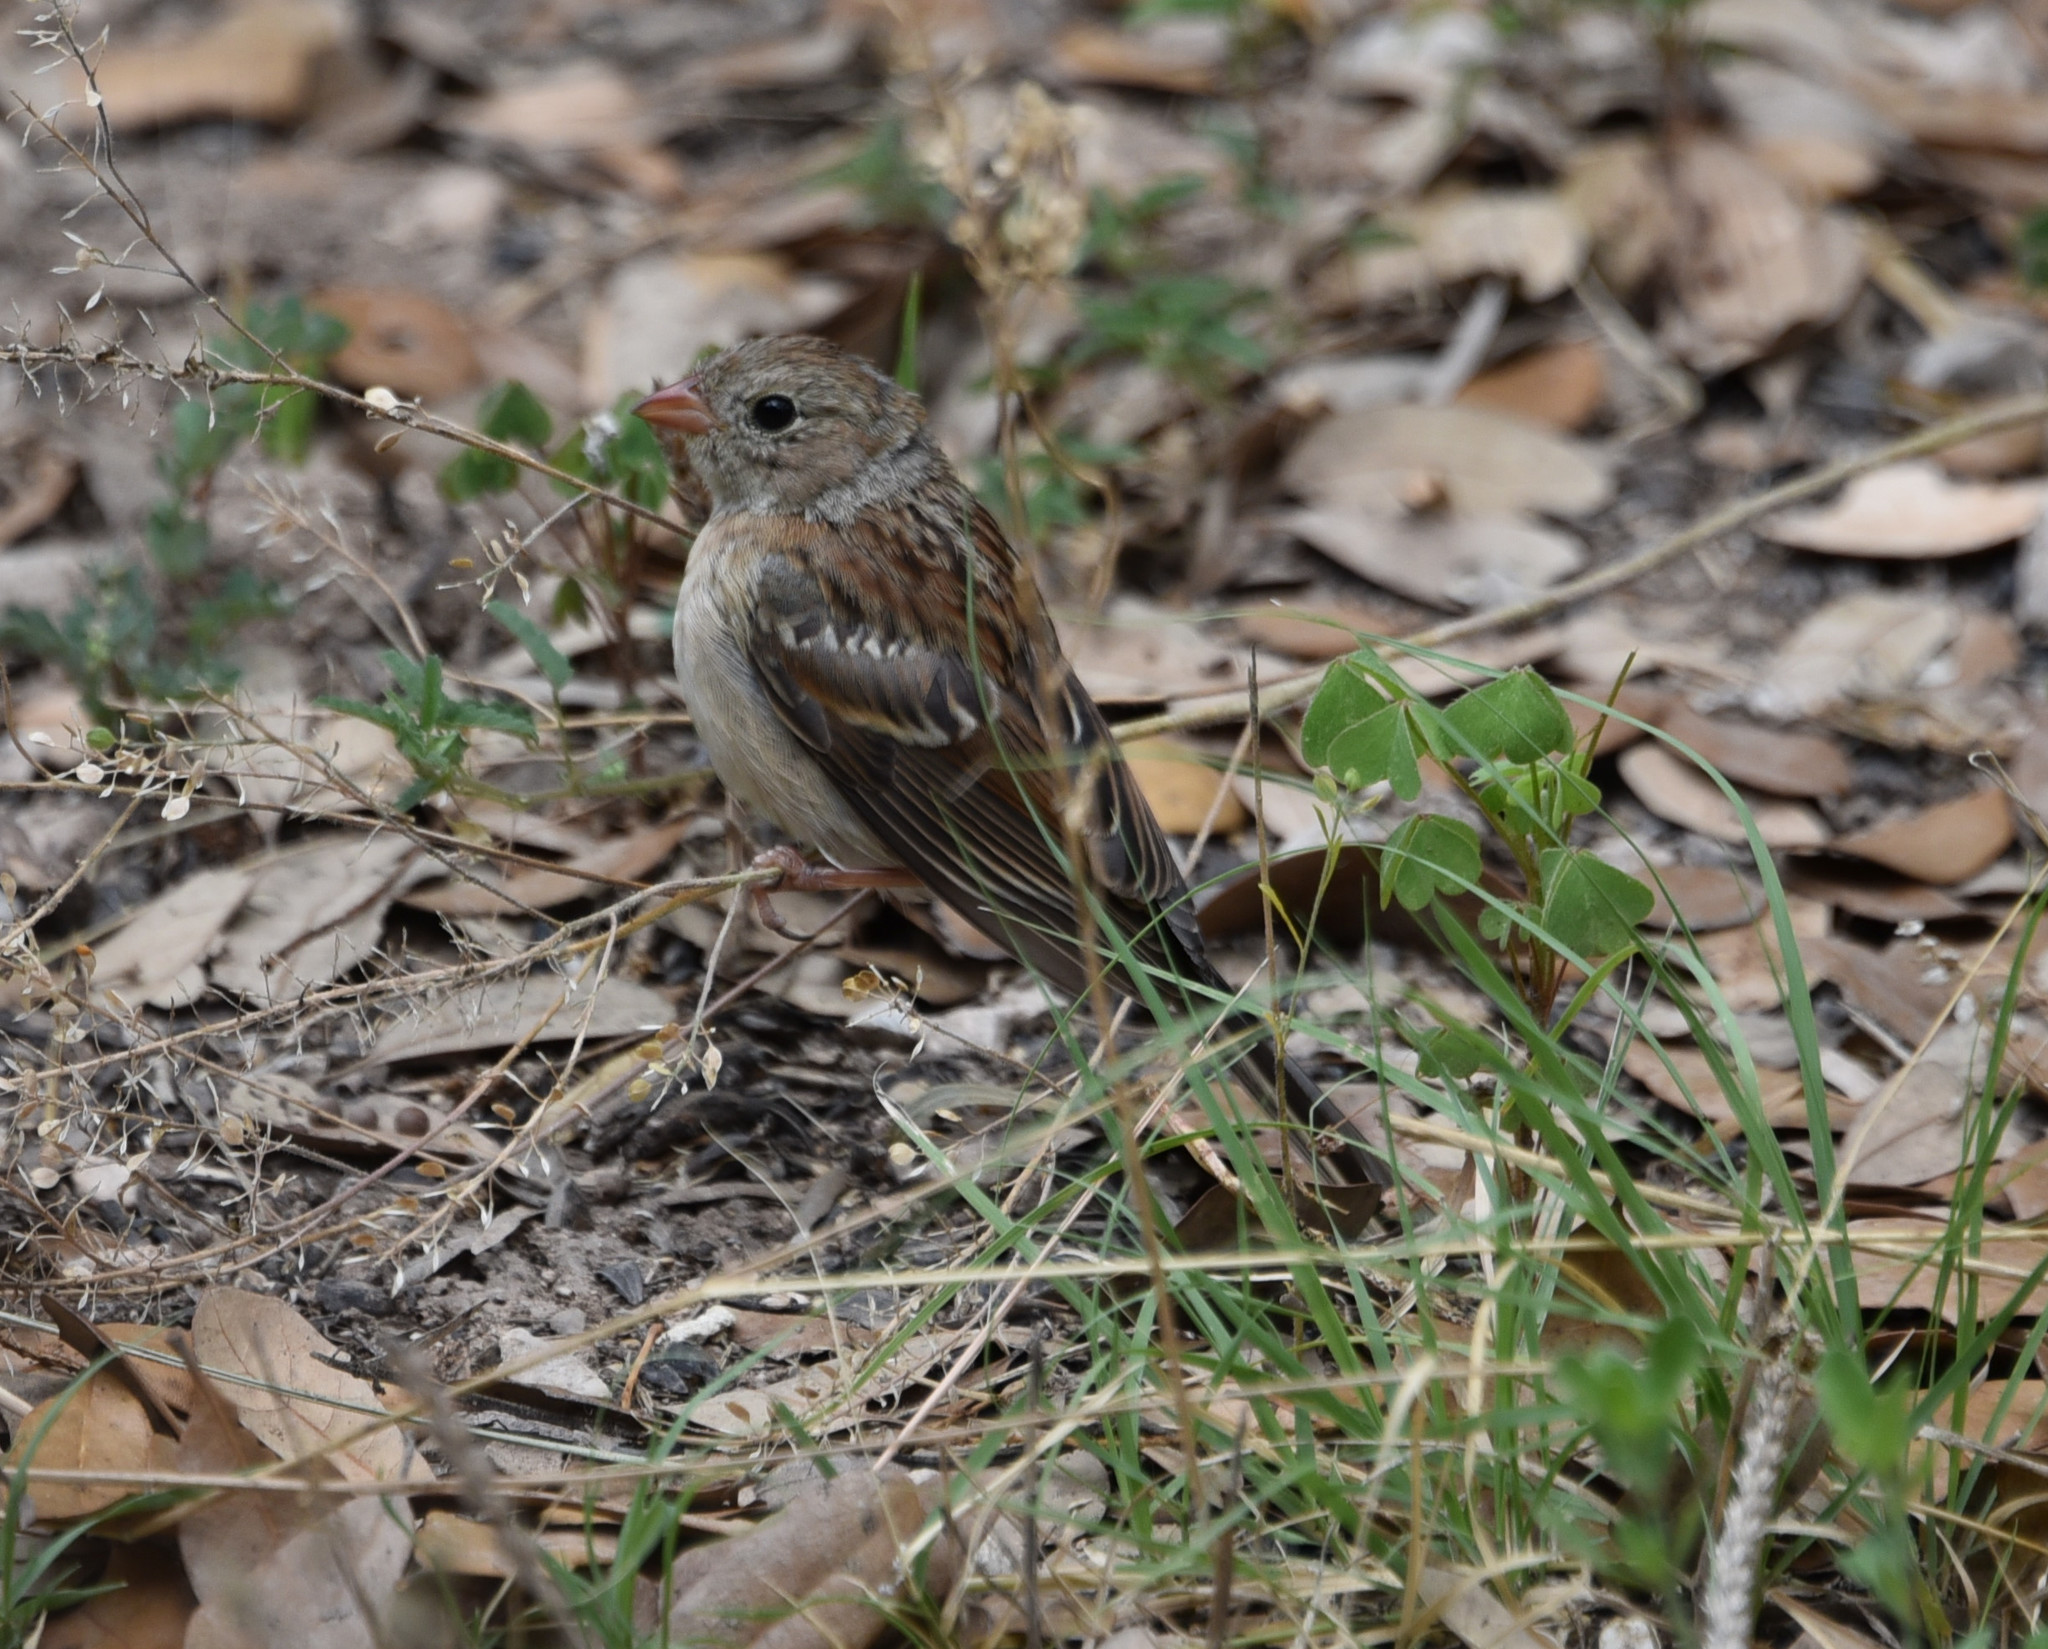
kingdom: Animalia
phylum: Chordata
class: Aves
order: Passeriformes
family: Passerellidae
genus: Spizella
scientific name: Spizella pusilla
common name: Field sparrow
